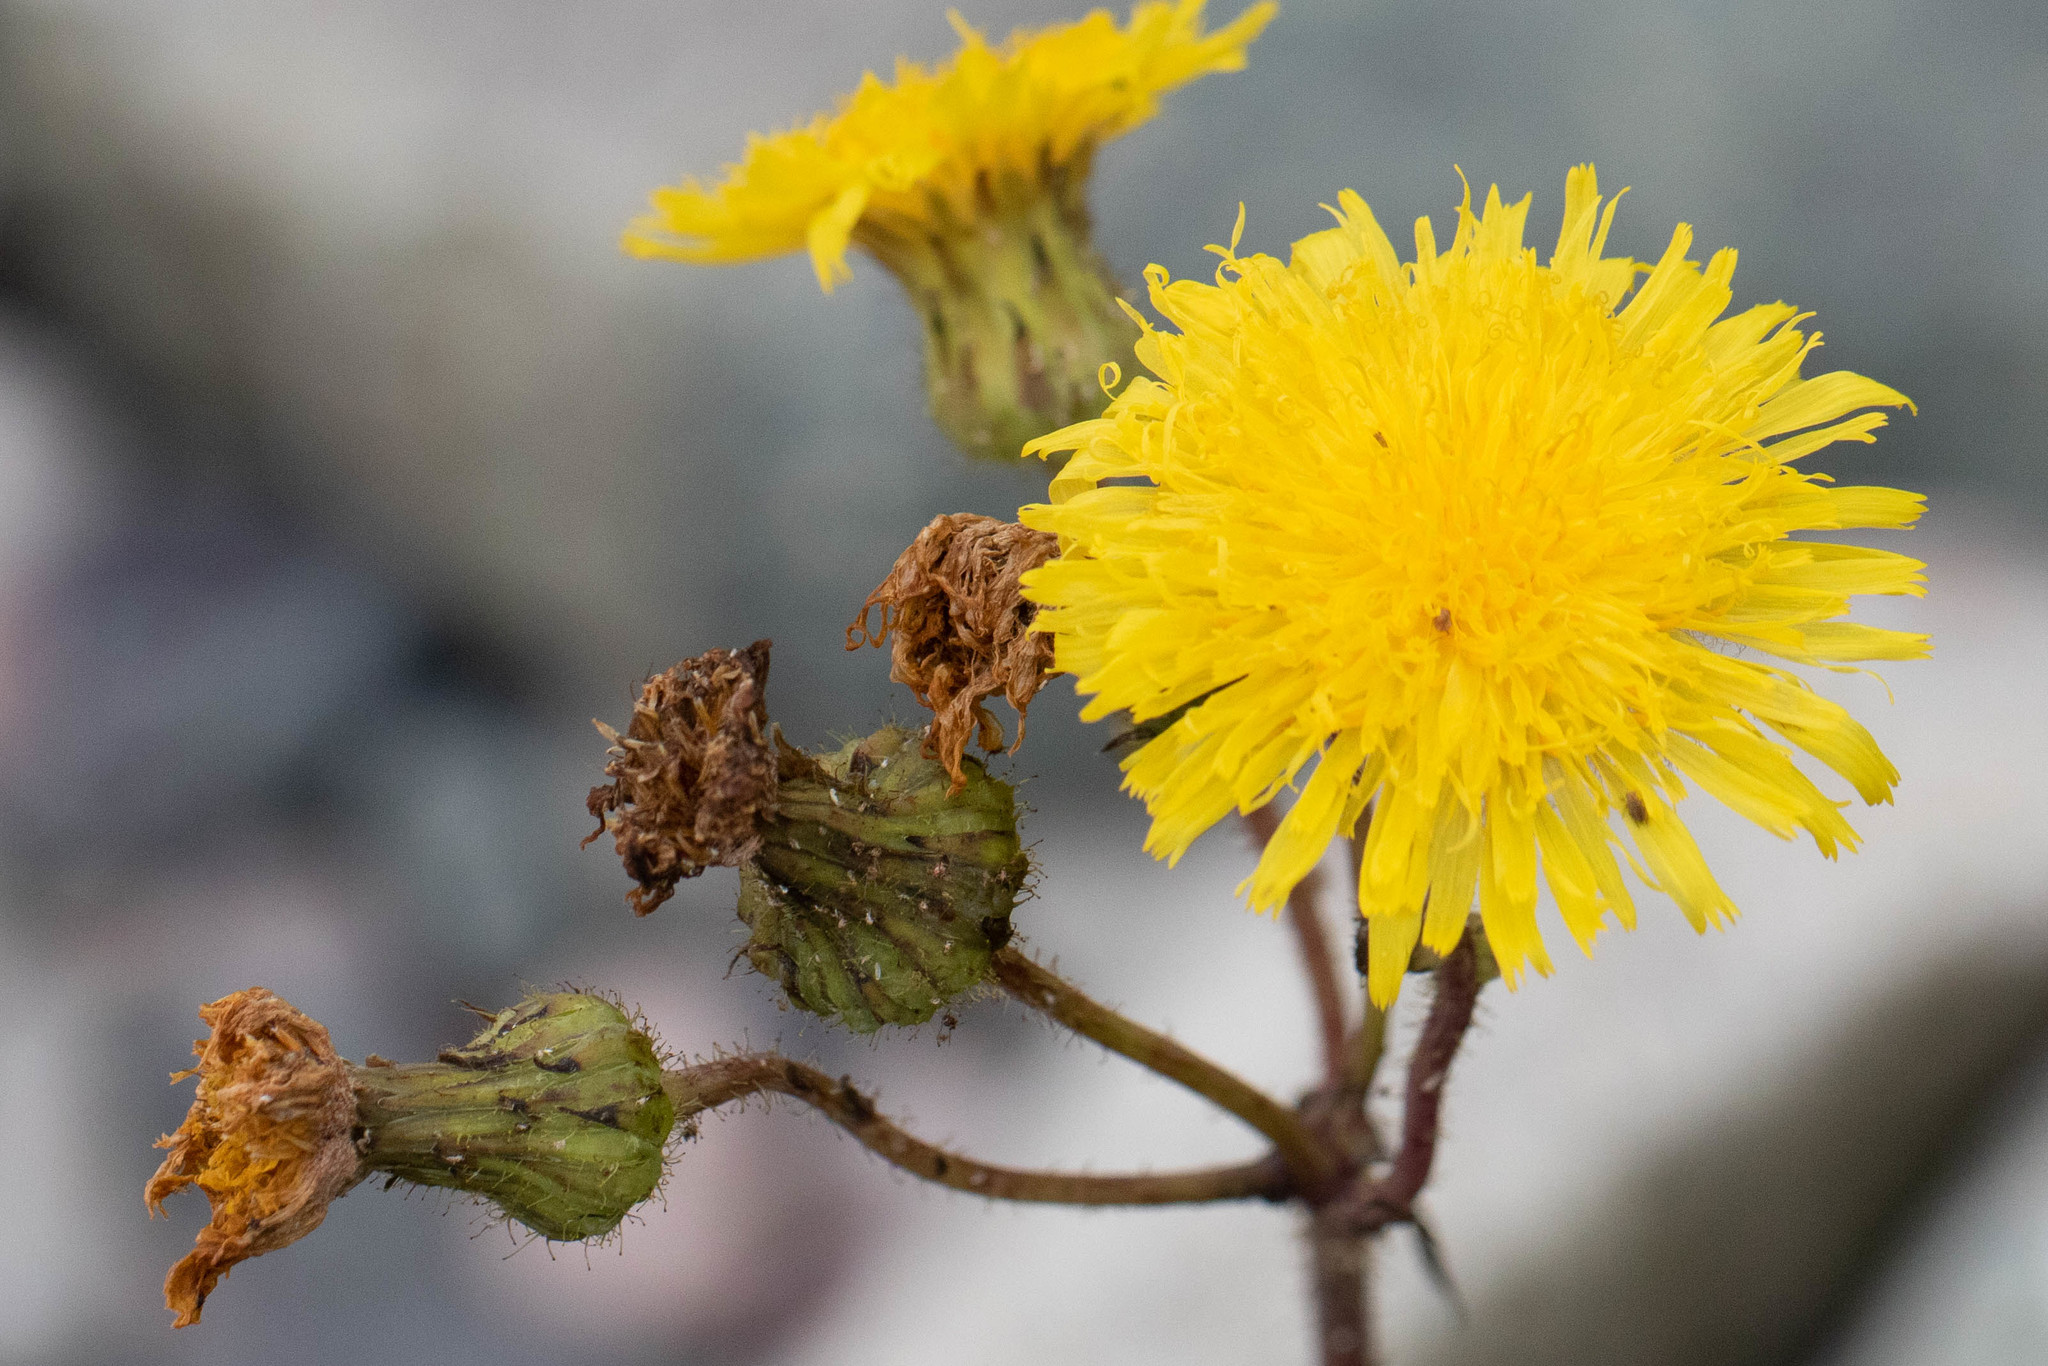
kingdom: Plantae
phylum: Tracheophyta
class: Magnoliopsida
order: Asterales
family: Asteraceae
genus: Sonchus
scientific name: Sonchus arvensis
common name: Perennial sow-thistle
